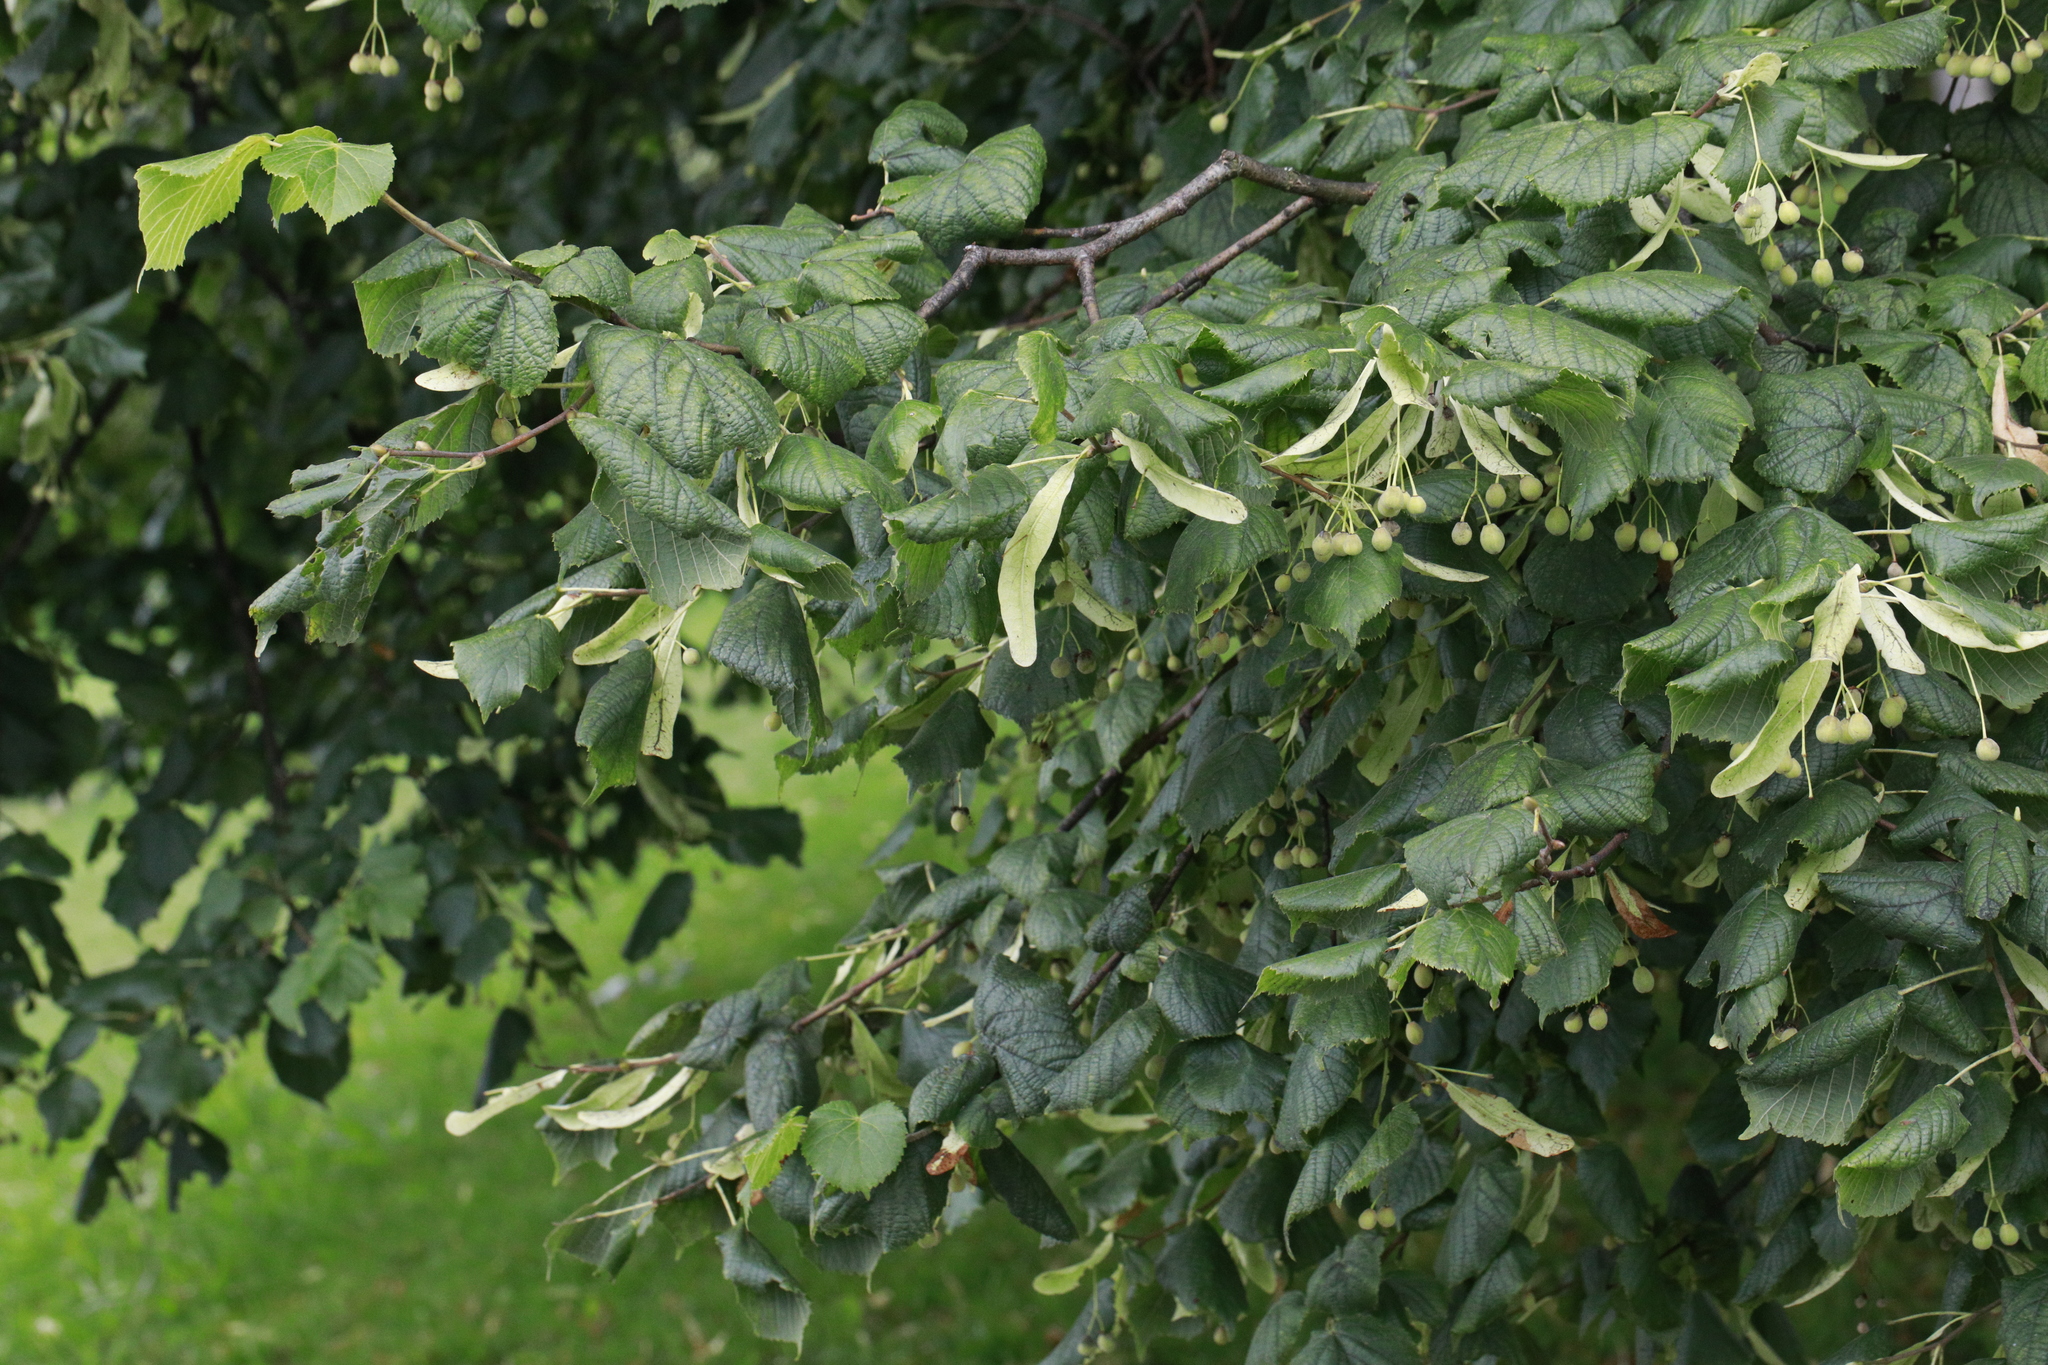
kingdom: Plantae
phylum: Tracheophyta
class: Magnoliopsida
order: Malvales
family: Malvaceae
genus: Tilia
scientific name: Tilia europaea
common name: European linden
